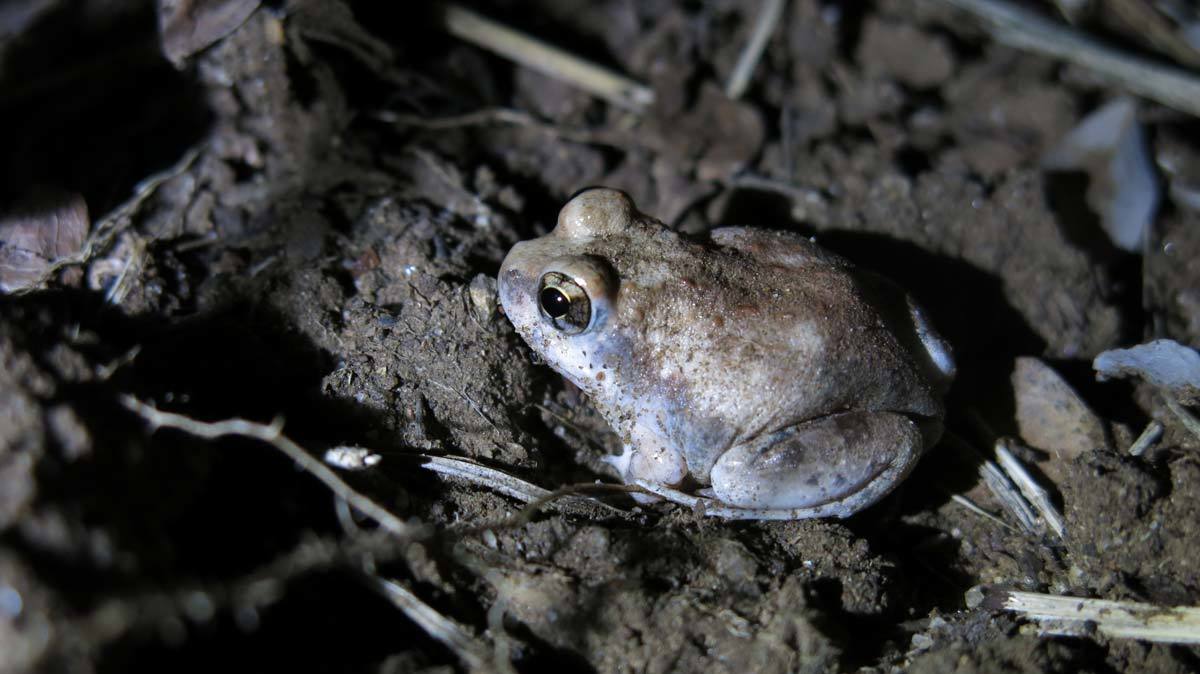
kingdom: Animalia
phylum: Chordata
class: Amphibia
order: Anura
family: Pyxicephalidae
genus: Tomopterna
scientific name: Tomopterna marmorata
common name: Russet-backed sand frog
